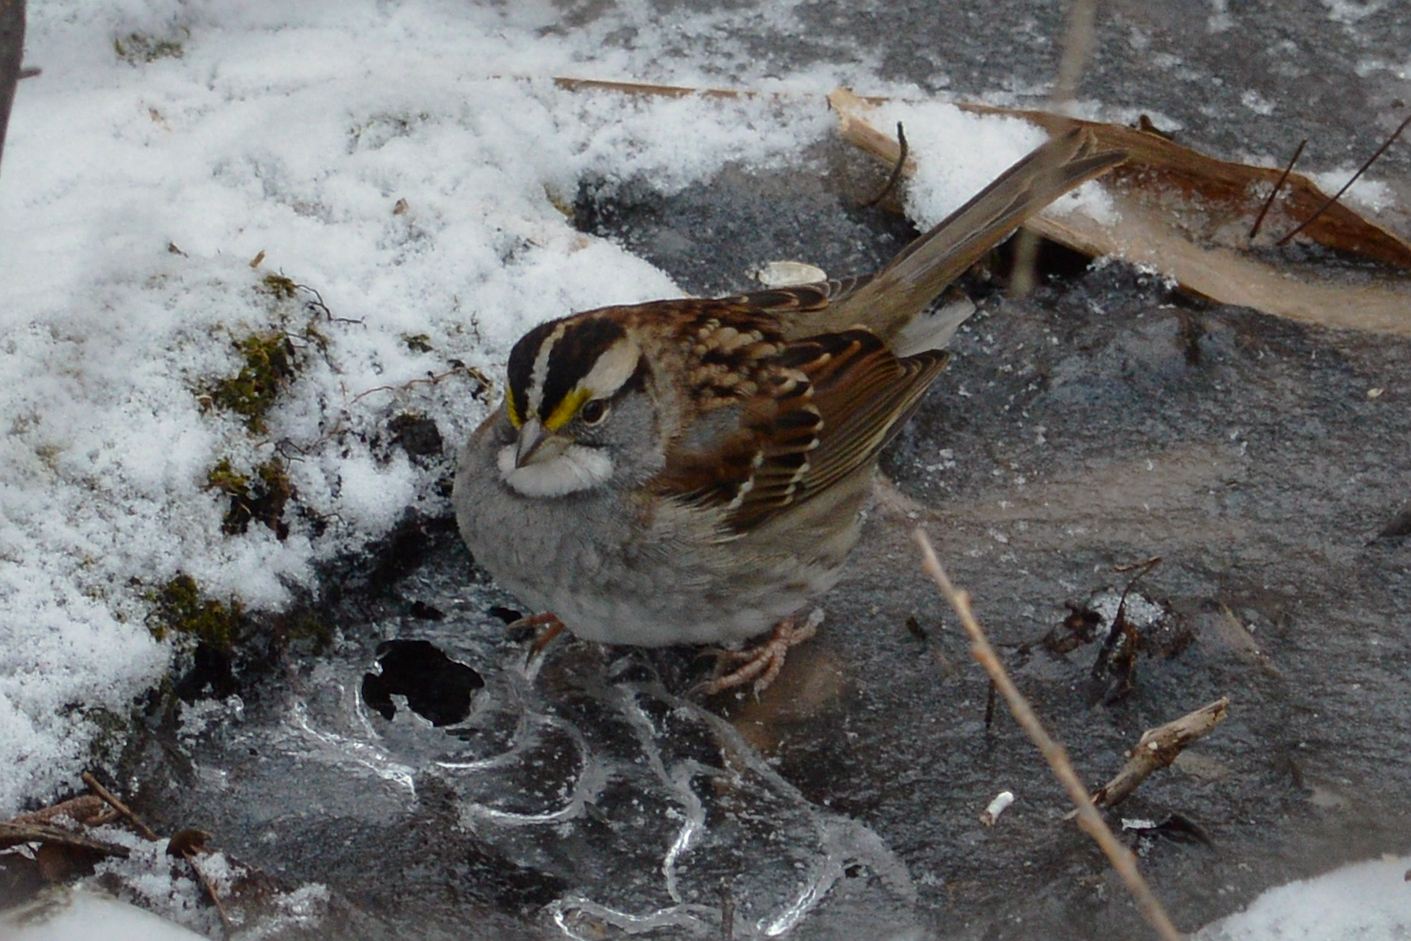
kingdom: Animalia
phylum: Chordata
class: Aves
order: Passeriformes
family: Passerellidae
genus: Zonotrichia
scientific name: Zonotrichia albicollis
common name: White-throated sparrow
